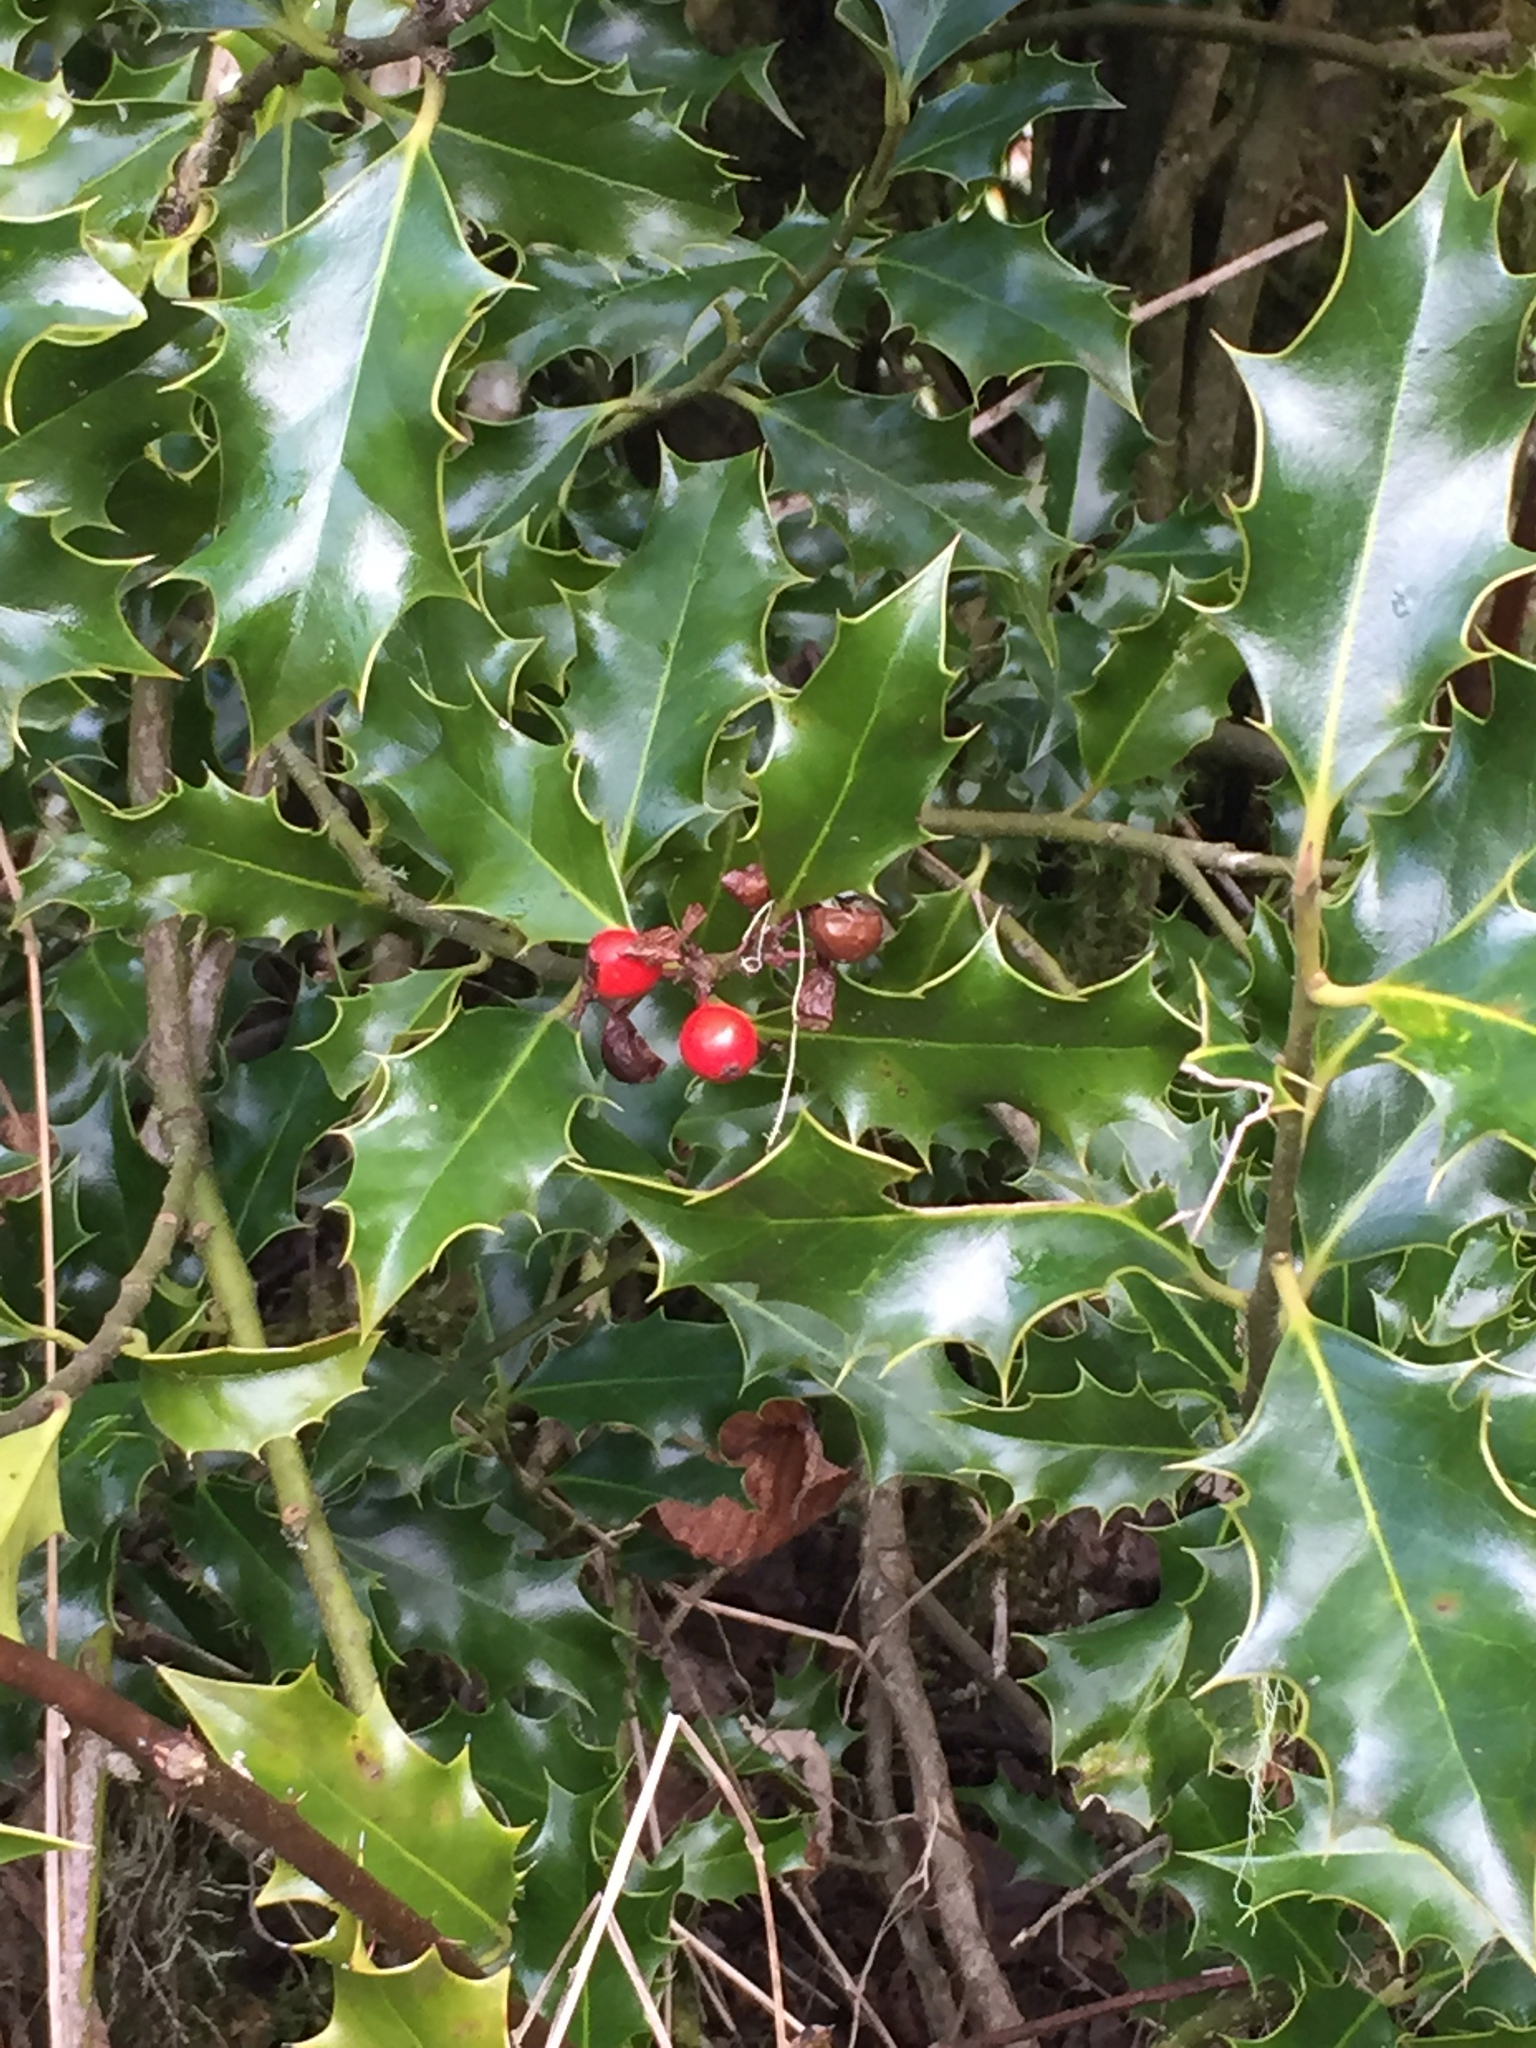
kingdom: Plantae
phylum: Tracheophyta
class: Magnoliopsida
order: Aquifoliales
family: Aquifoliaceae
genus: Ilex
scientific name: Ilex aquifolium
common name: English holly
